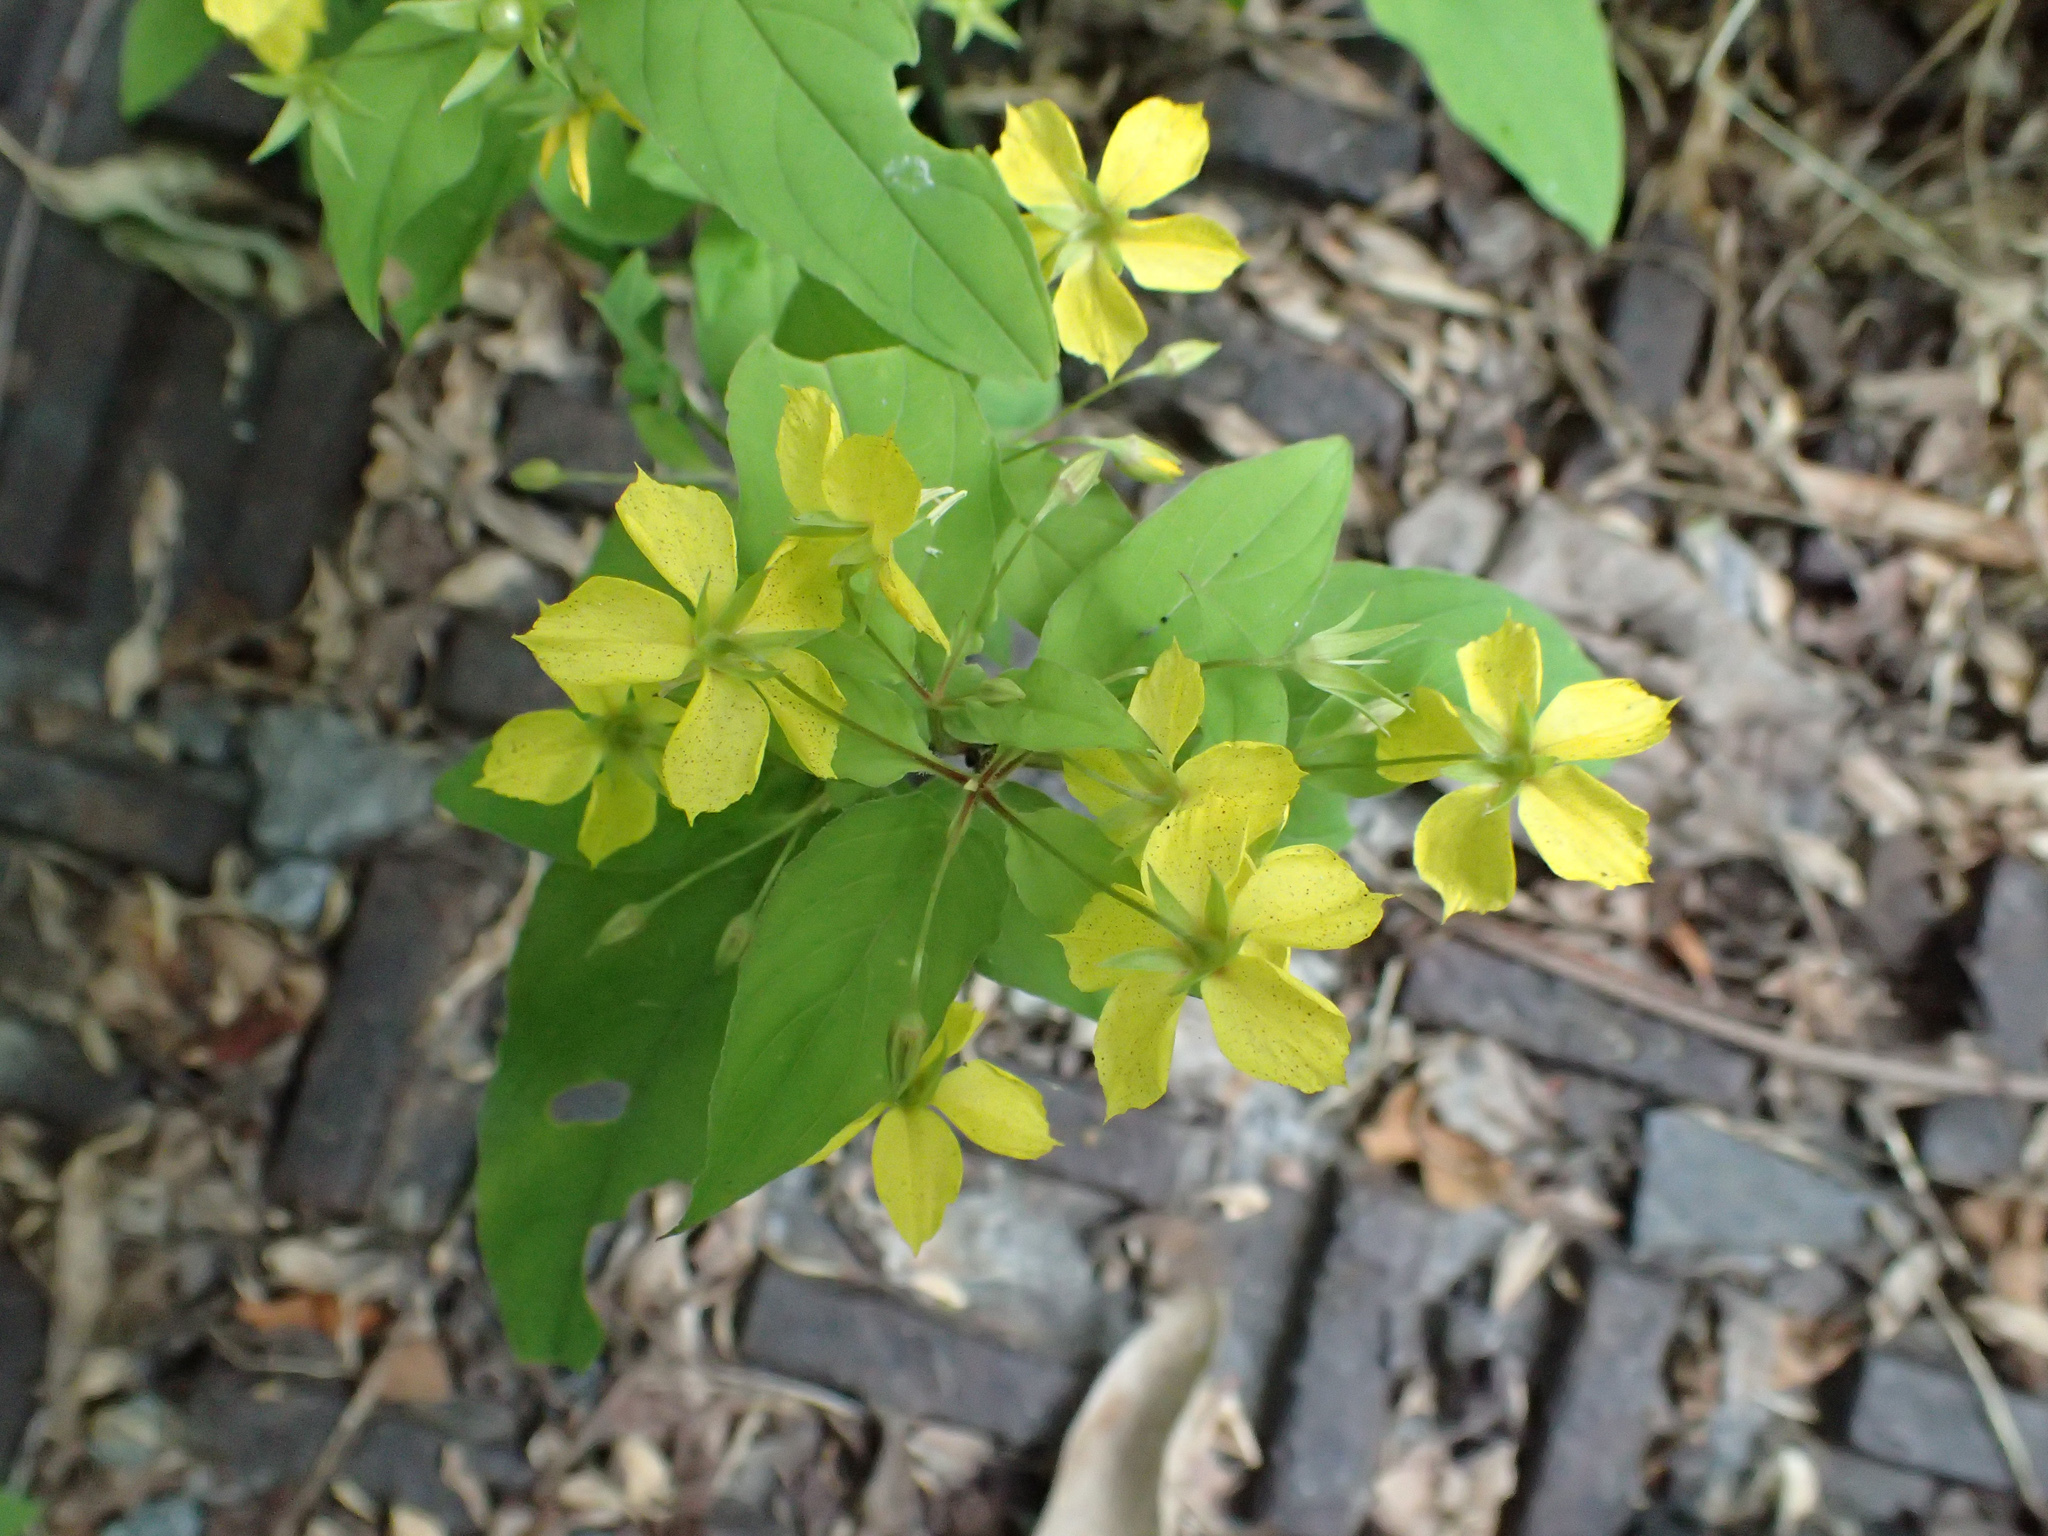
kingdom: Plantae
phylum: Tracheophyta
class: Magnoliopsida
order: Ericales
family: Primulaceae
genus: Lysimachia
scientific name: Lysimachia ciliata
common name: Fringed loosestrife
